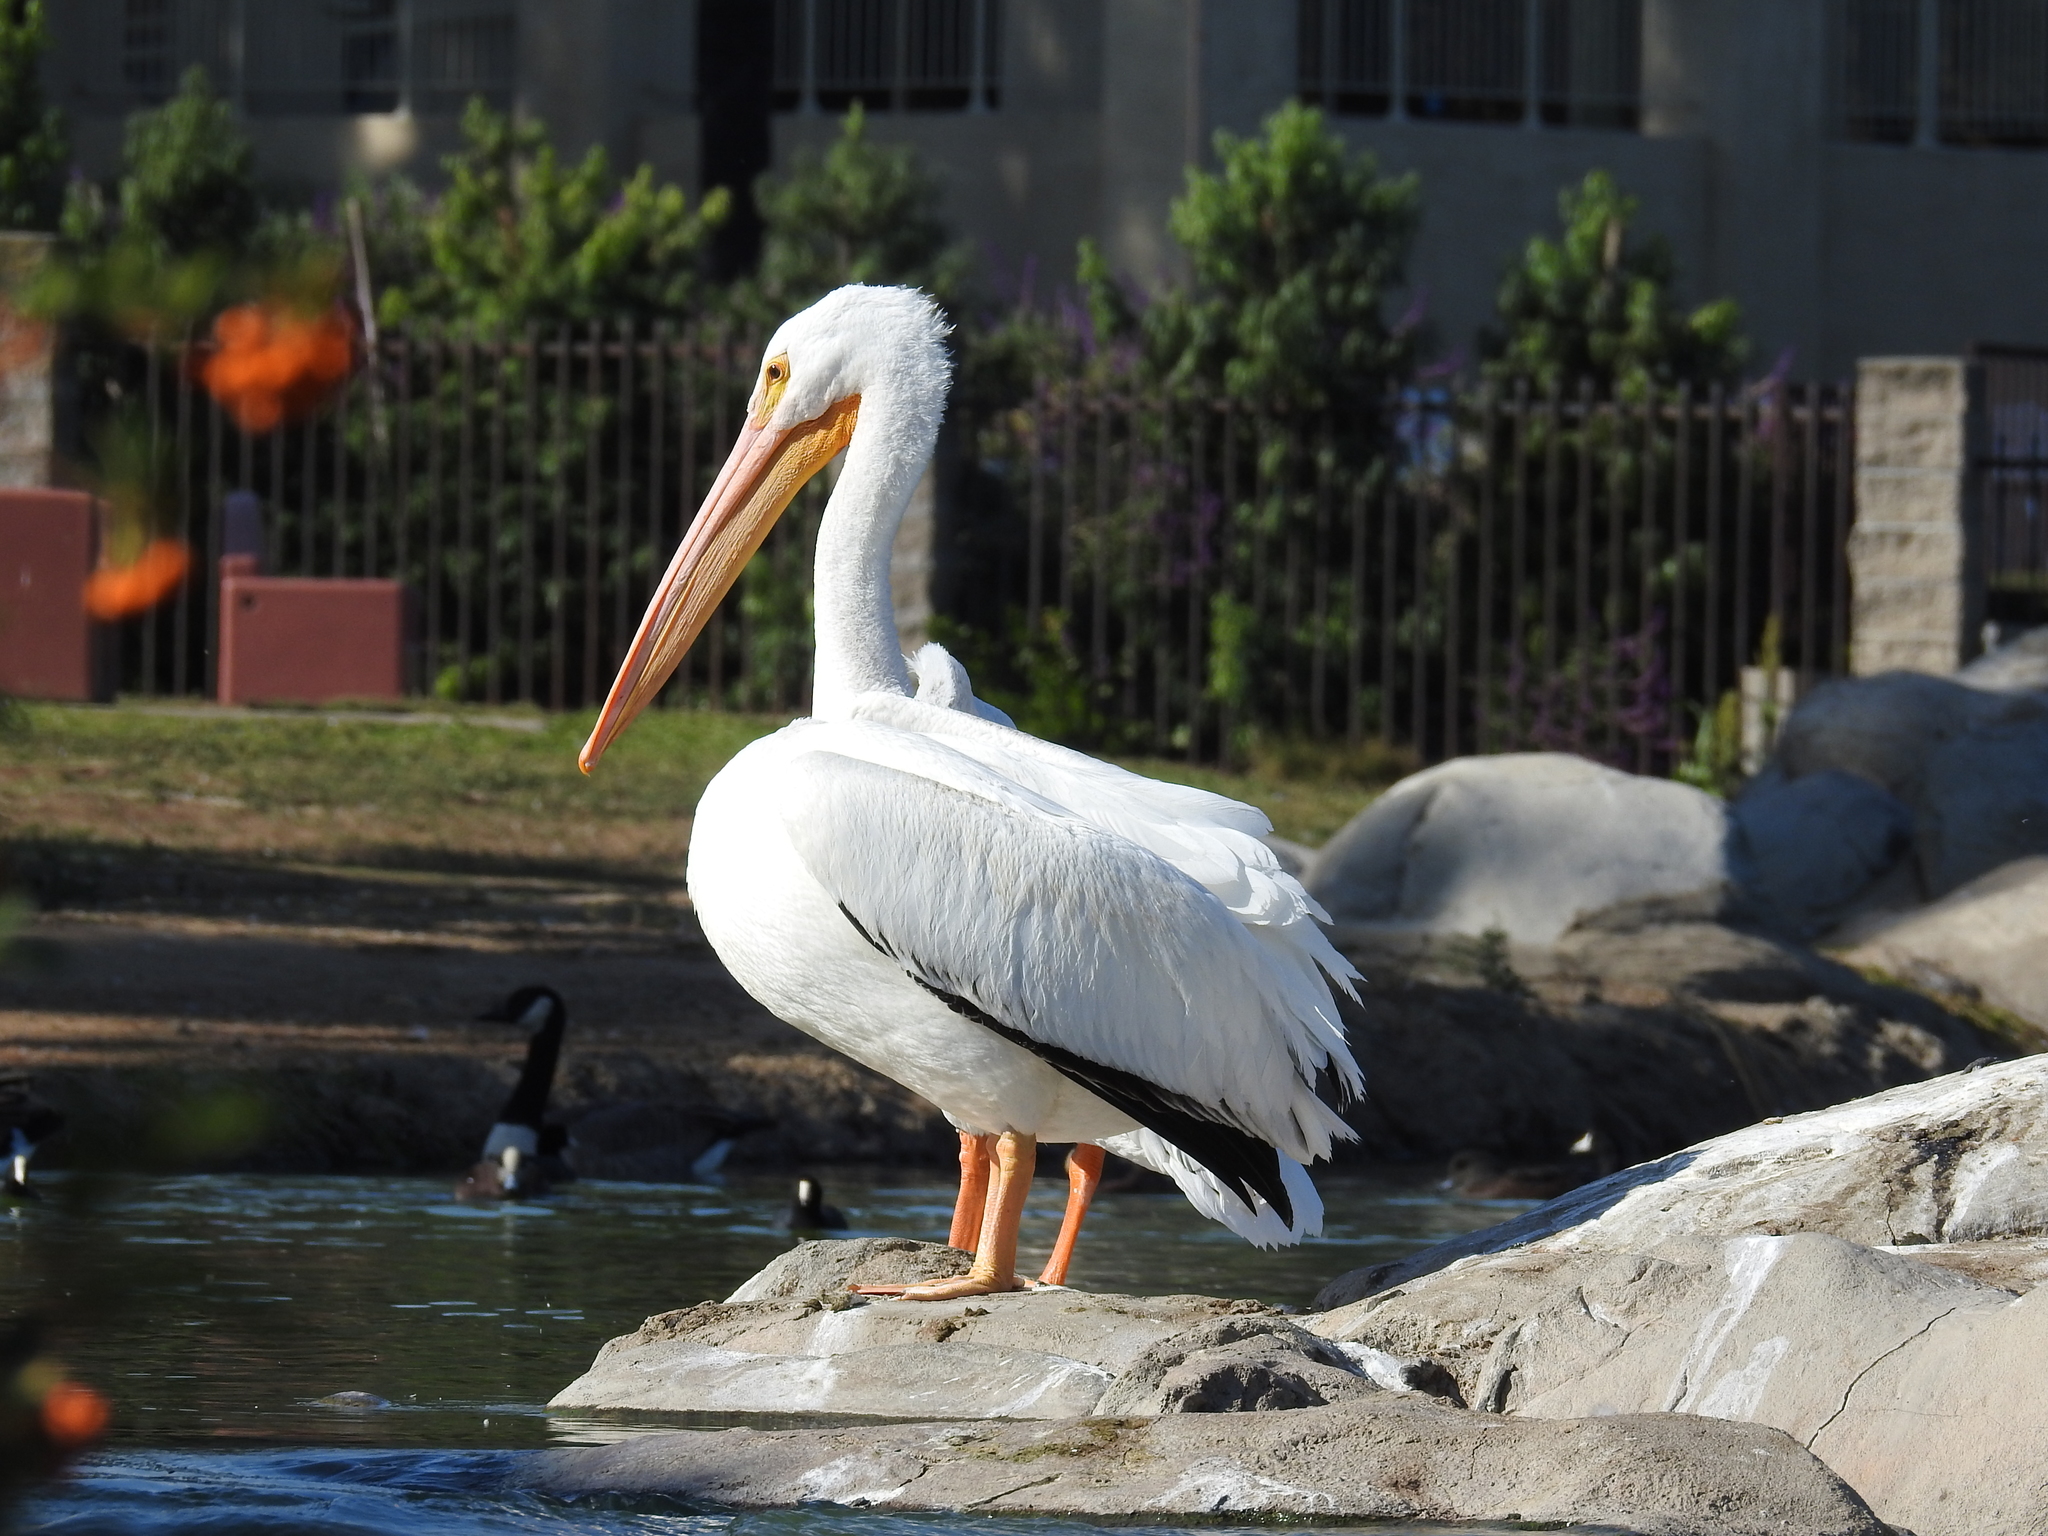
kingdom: Animalia
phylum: Chordata
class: Aves
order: Pelecaniformes
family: Pelecanidae
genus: Pelecanus
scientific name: Pelecanus erythrorhynchos
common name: American white pelican
